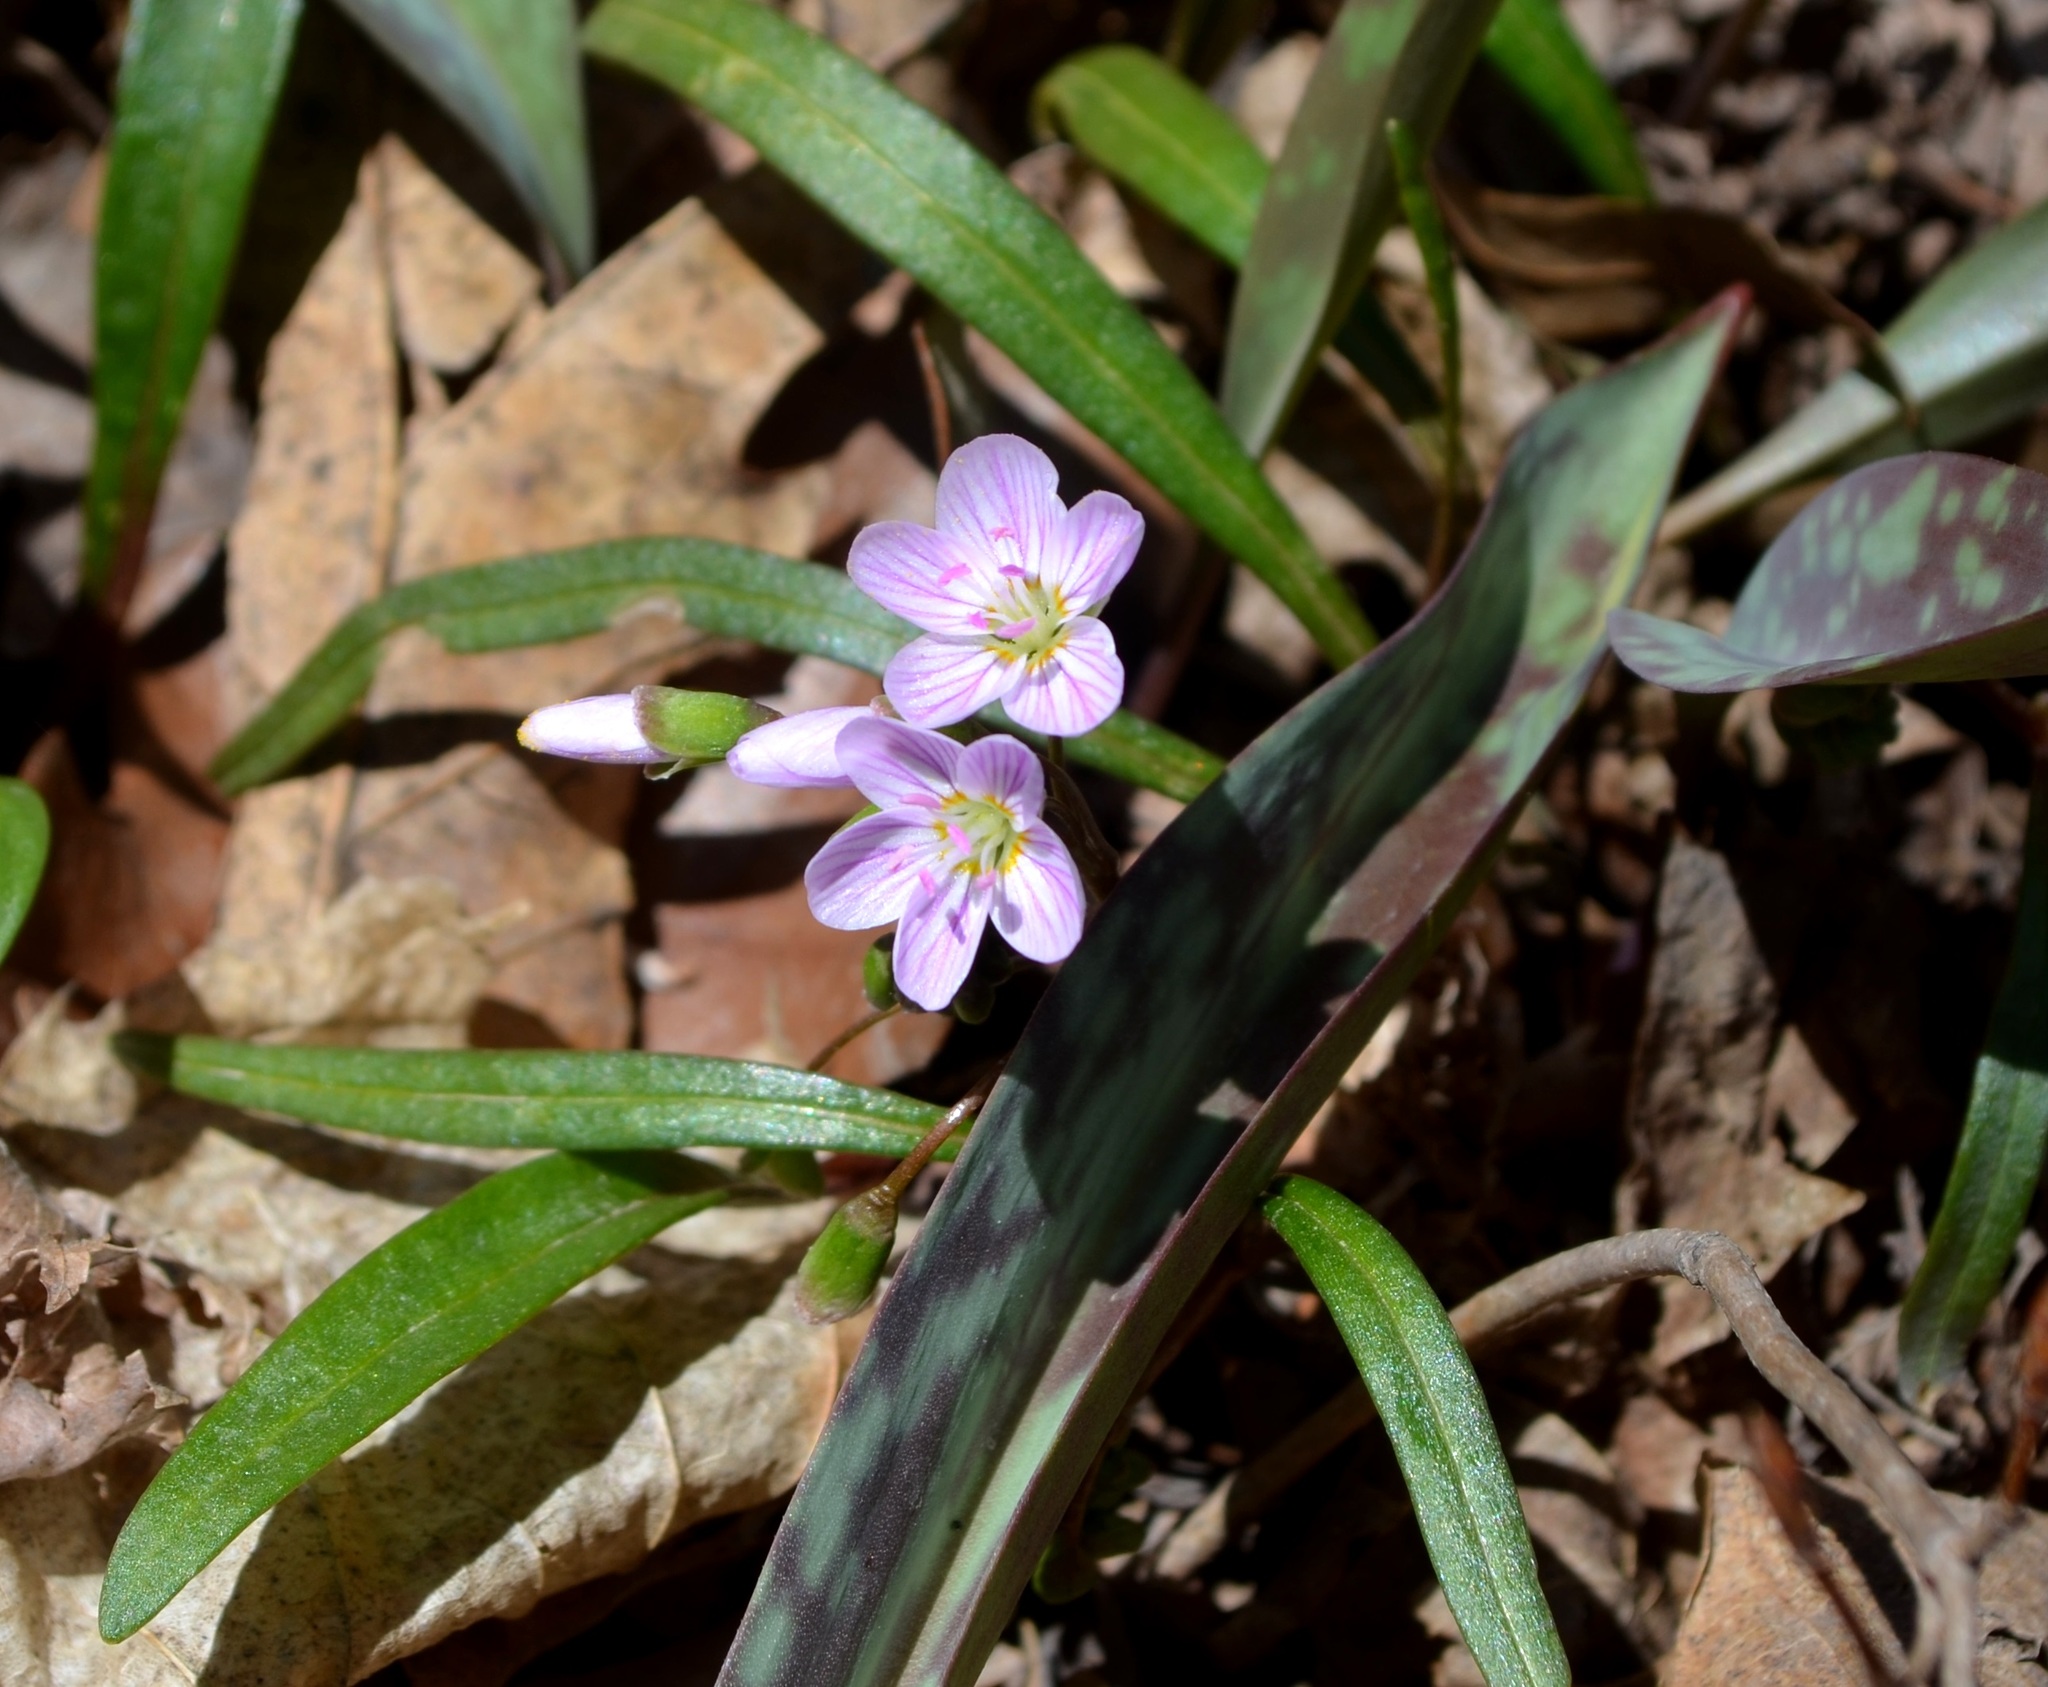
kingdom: Plantae
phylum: Tracheophyta
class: Magnoliopsida
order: Caryophyllales
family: Montiaceae
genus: Claytonia
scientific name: Claytonia virginica
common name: Virginia springbeauty
